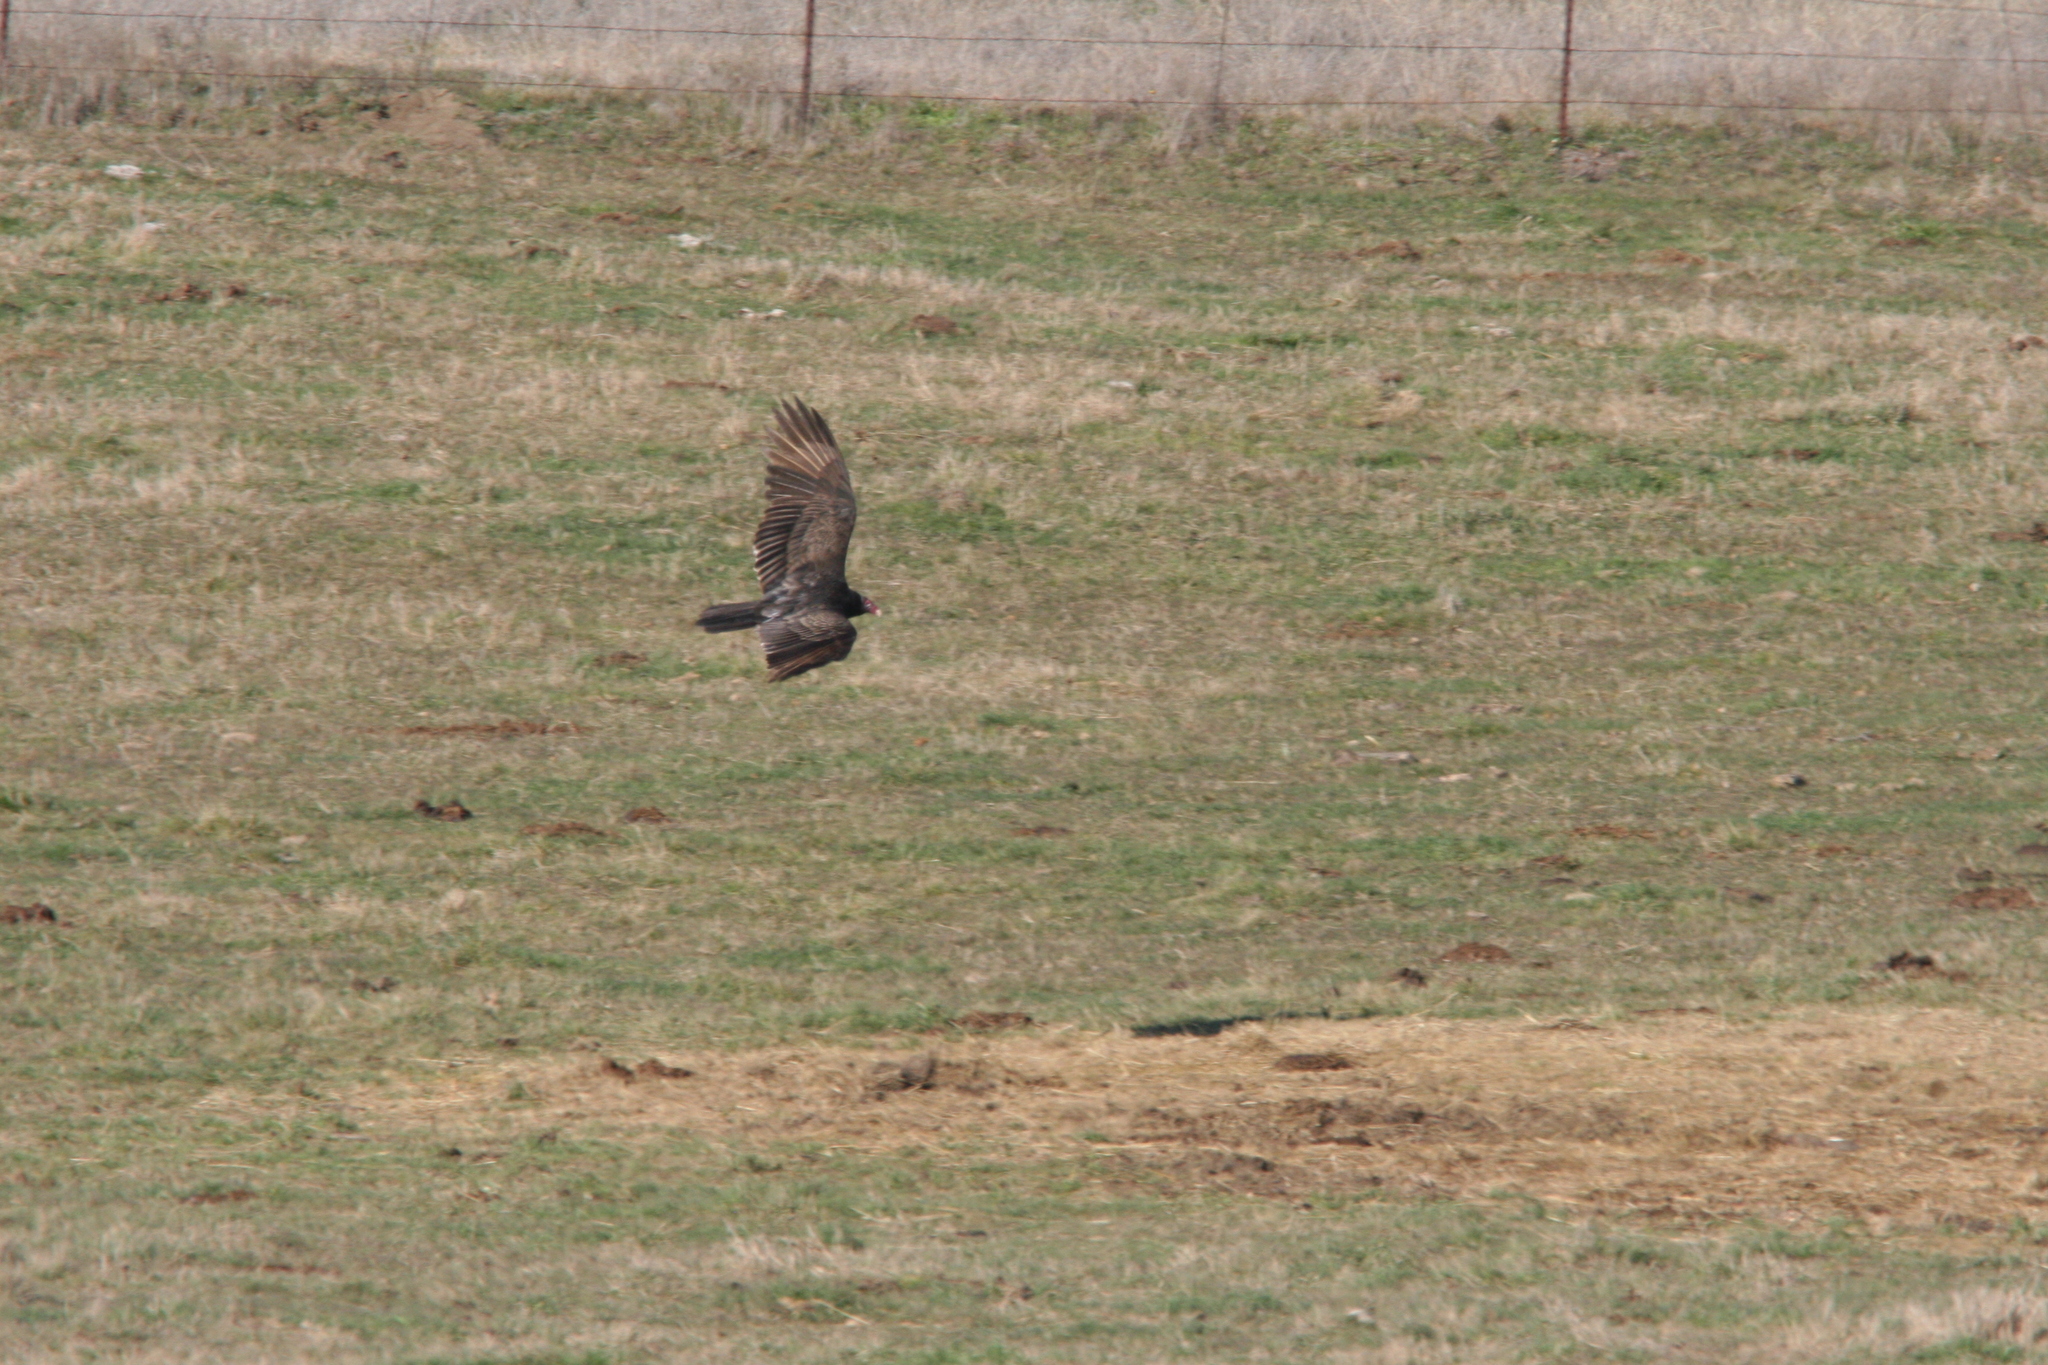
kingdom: Animalia
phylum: Chordata
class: Aves
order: Accipitriformes
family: Cathartidae
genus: Cathartes
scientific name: Cathartes aura
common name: Turkey vulture
